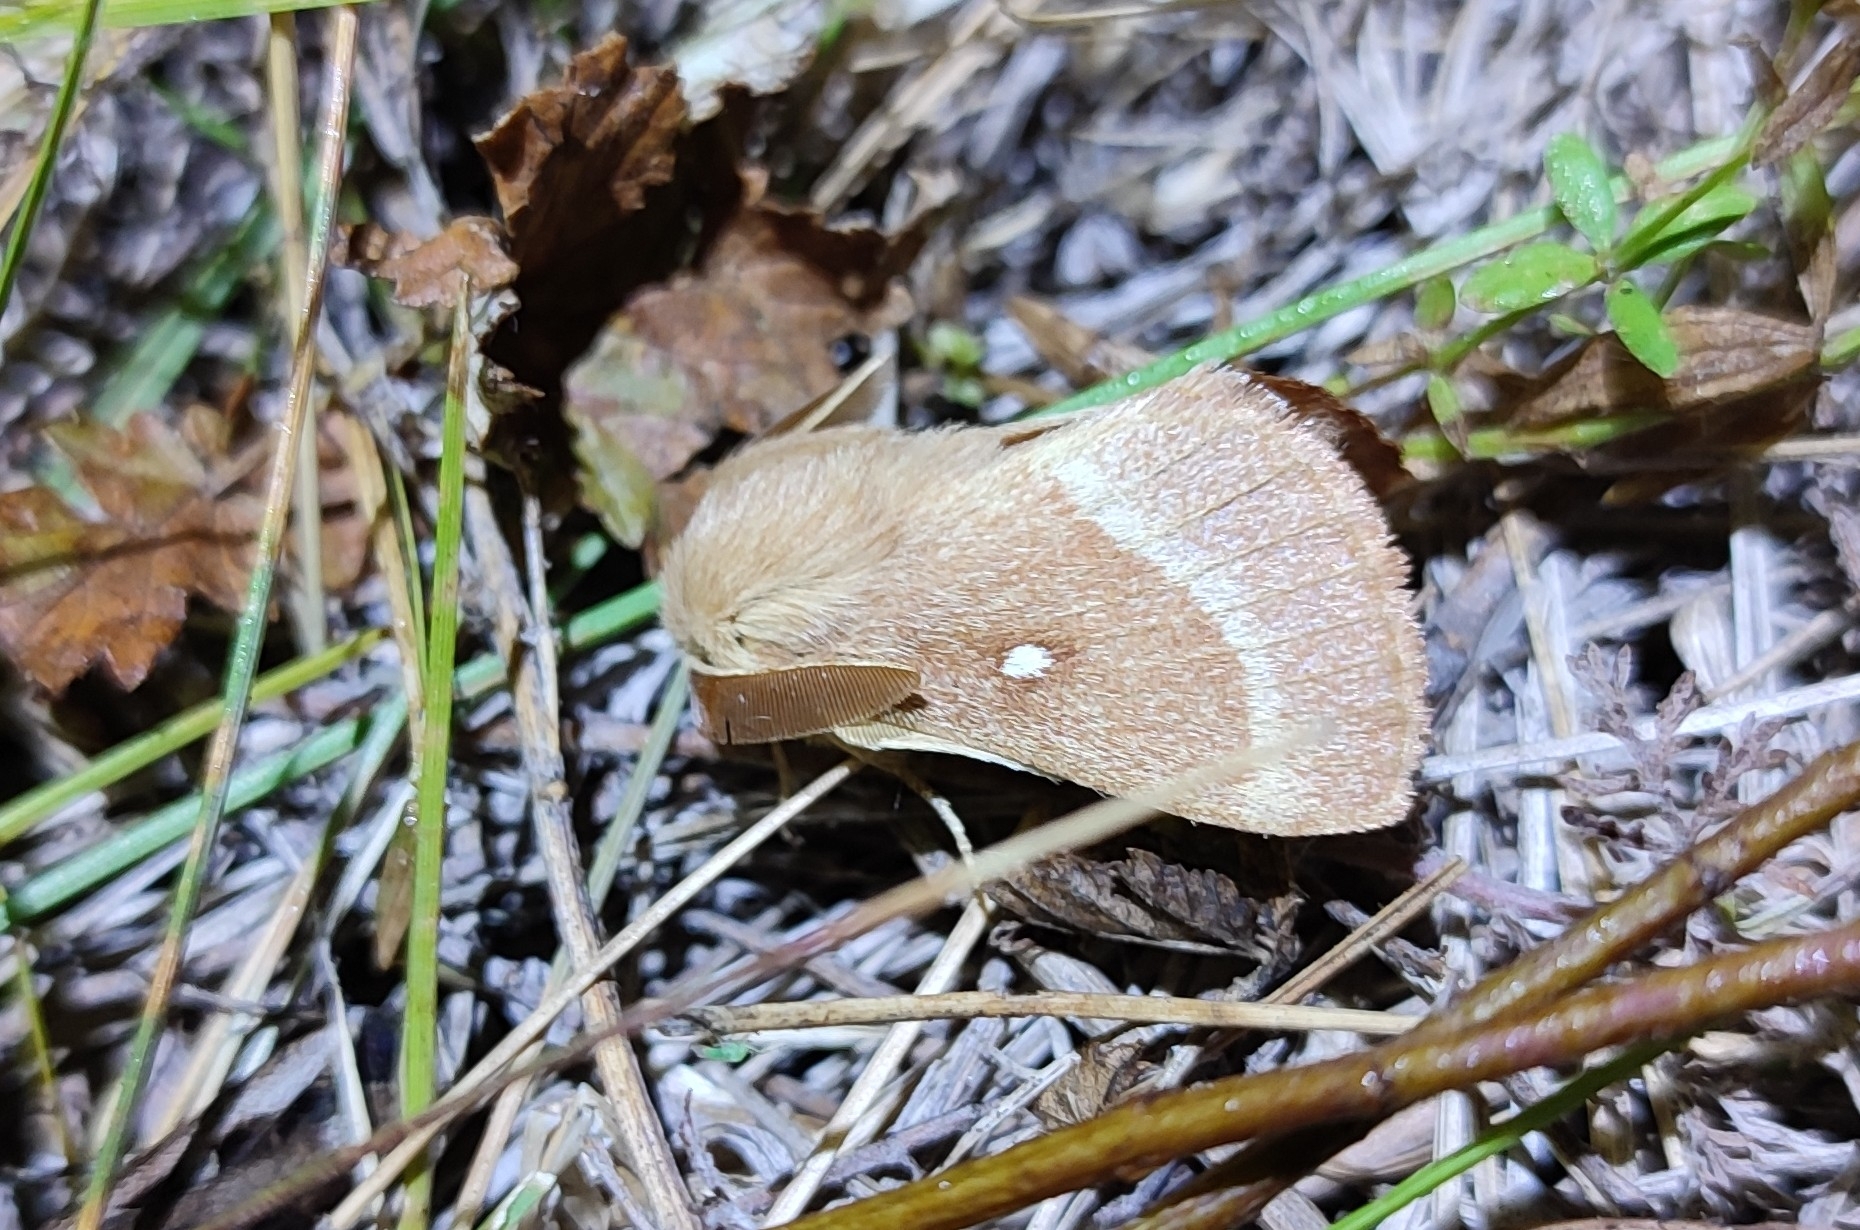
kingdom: Animalia
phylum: Arthropoda
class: Insecta
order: Lepidoptera
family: Lasiocampidae
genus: Lasiocampa
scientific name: Lasiocampa trifolii
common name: Grass eggar
